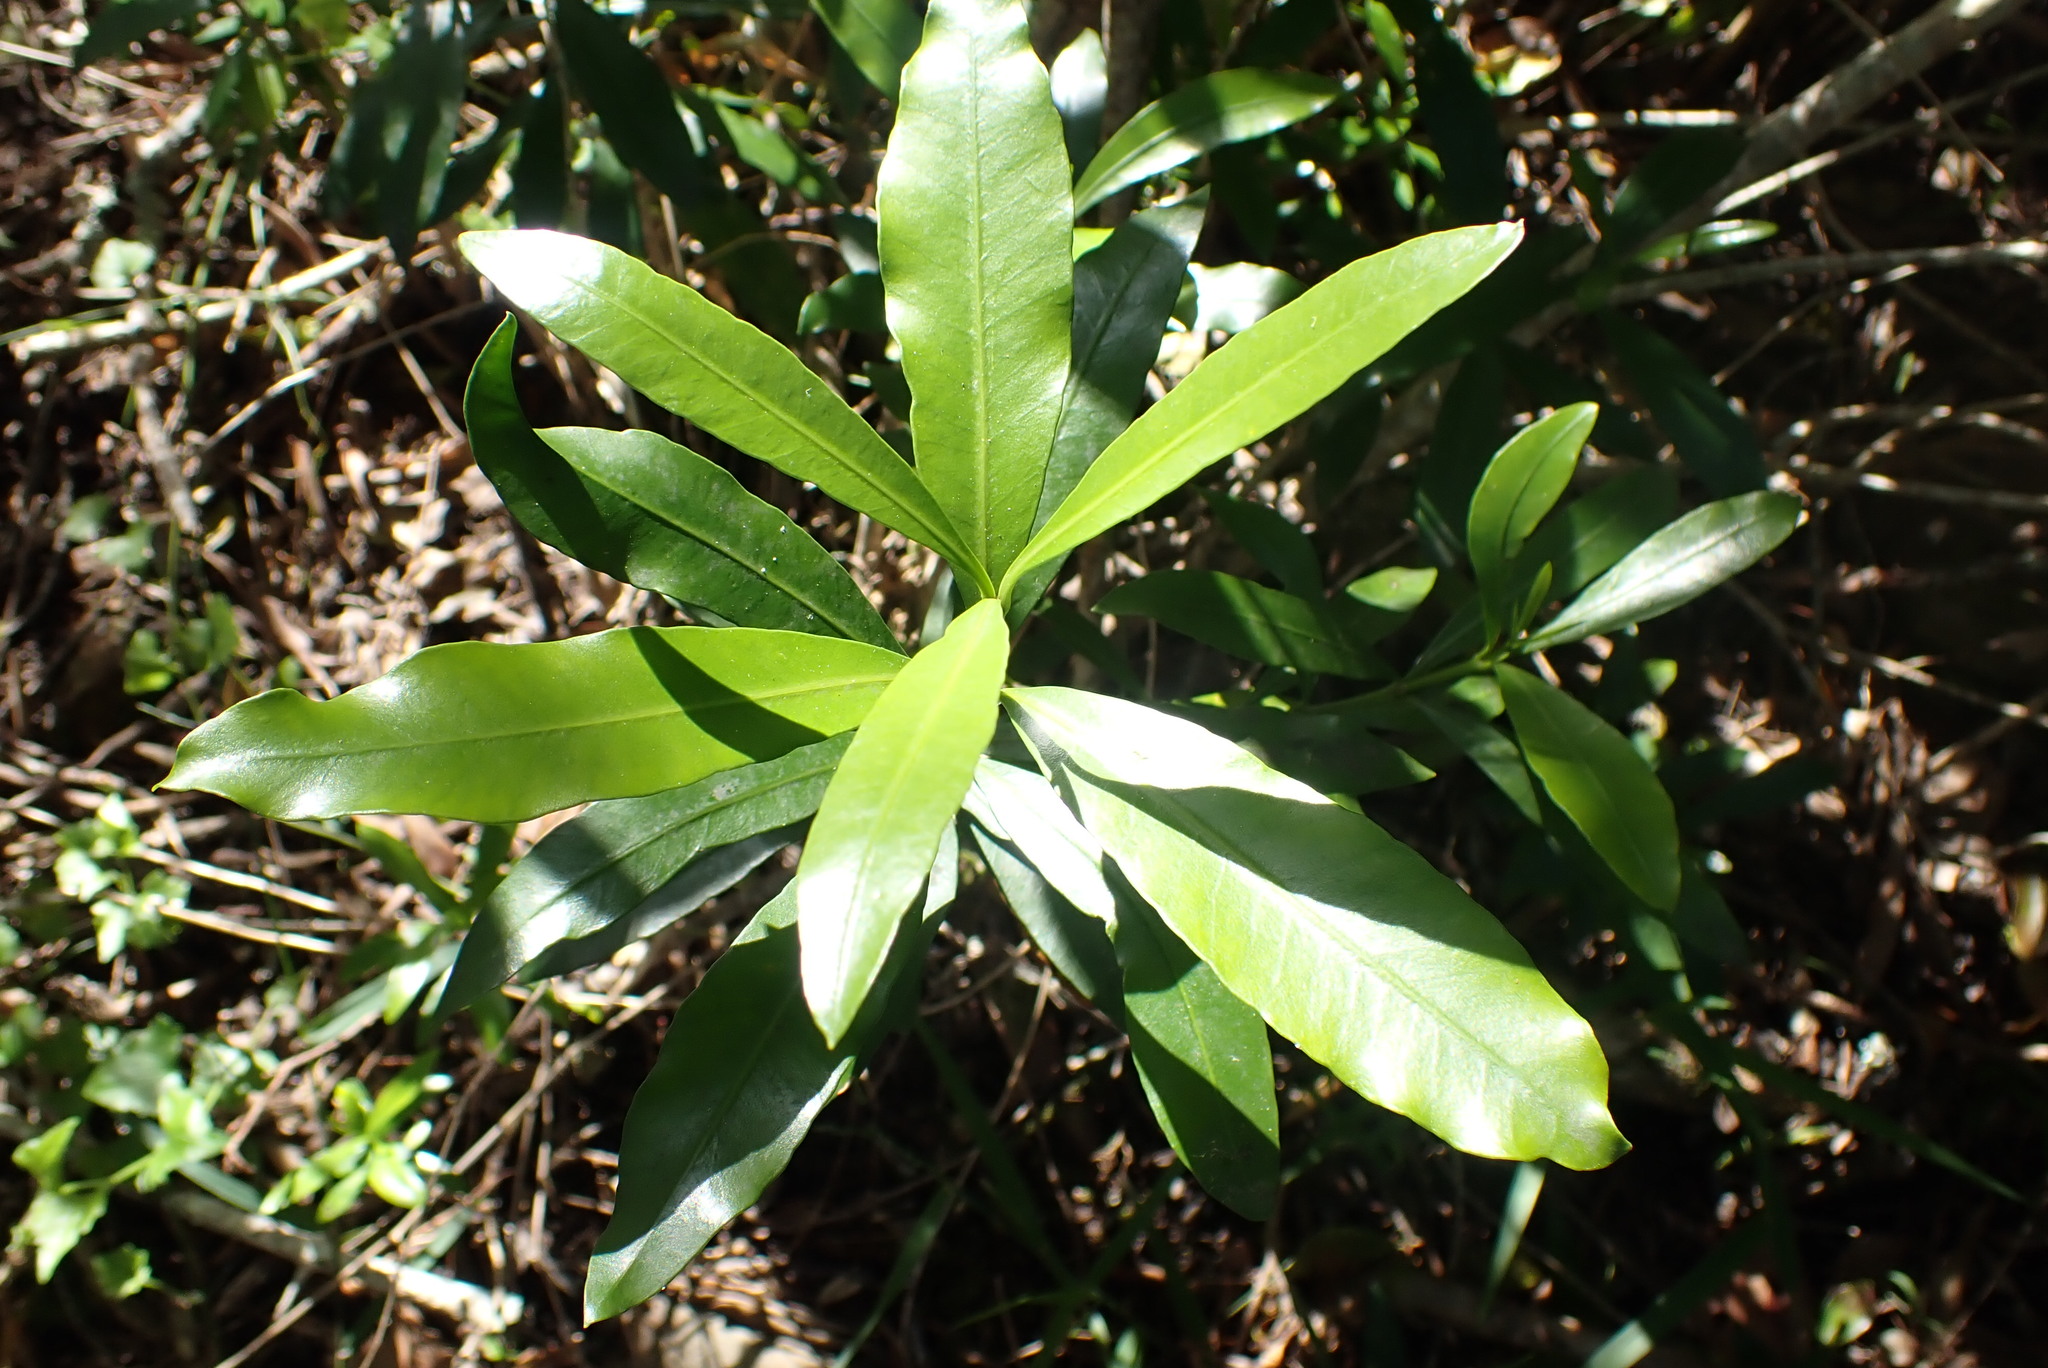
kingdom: Plantae
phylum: Tracheophyta
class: Magnoliopsida
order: Gentianales
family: Apocynaceae
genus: Gonioma
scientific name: Gonioma kamassi
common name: Kamassi
